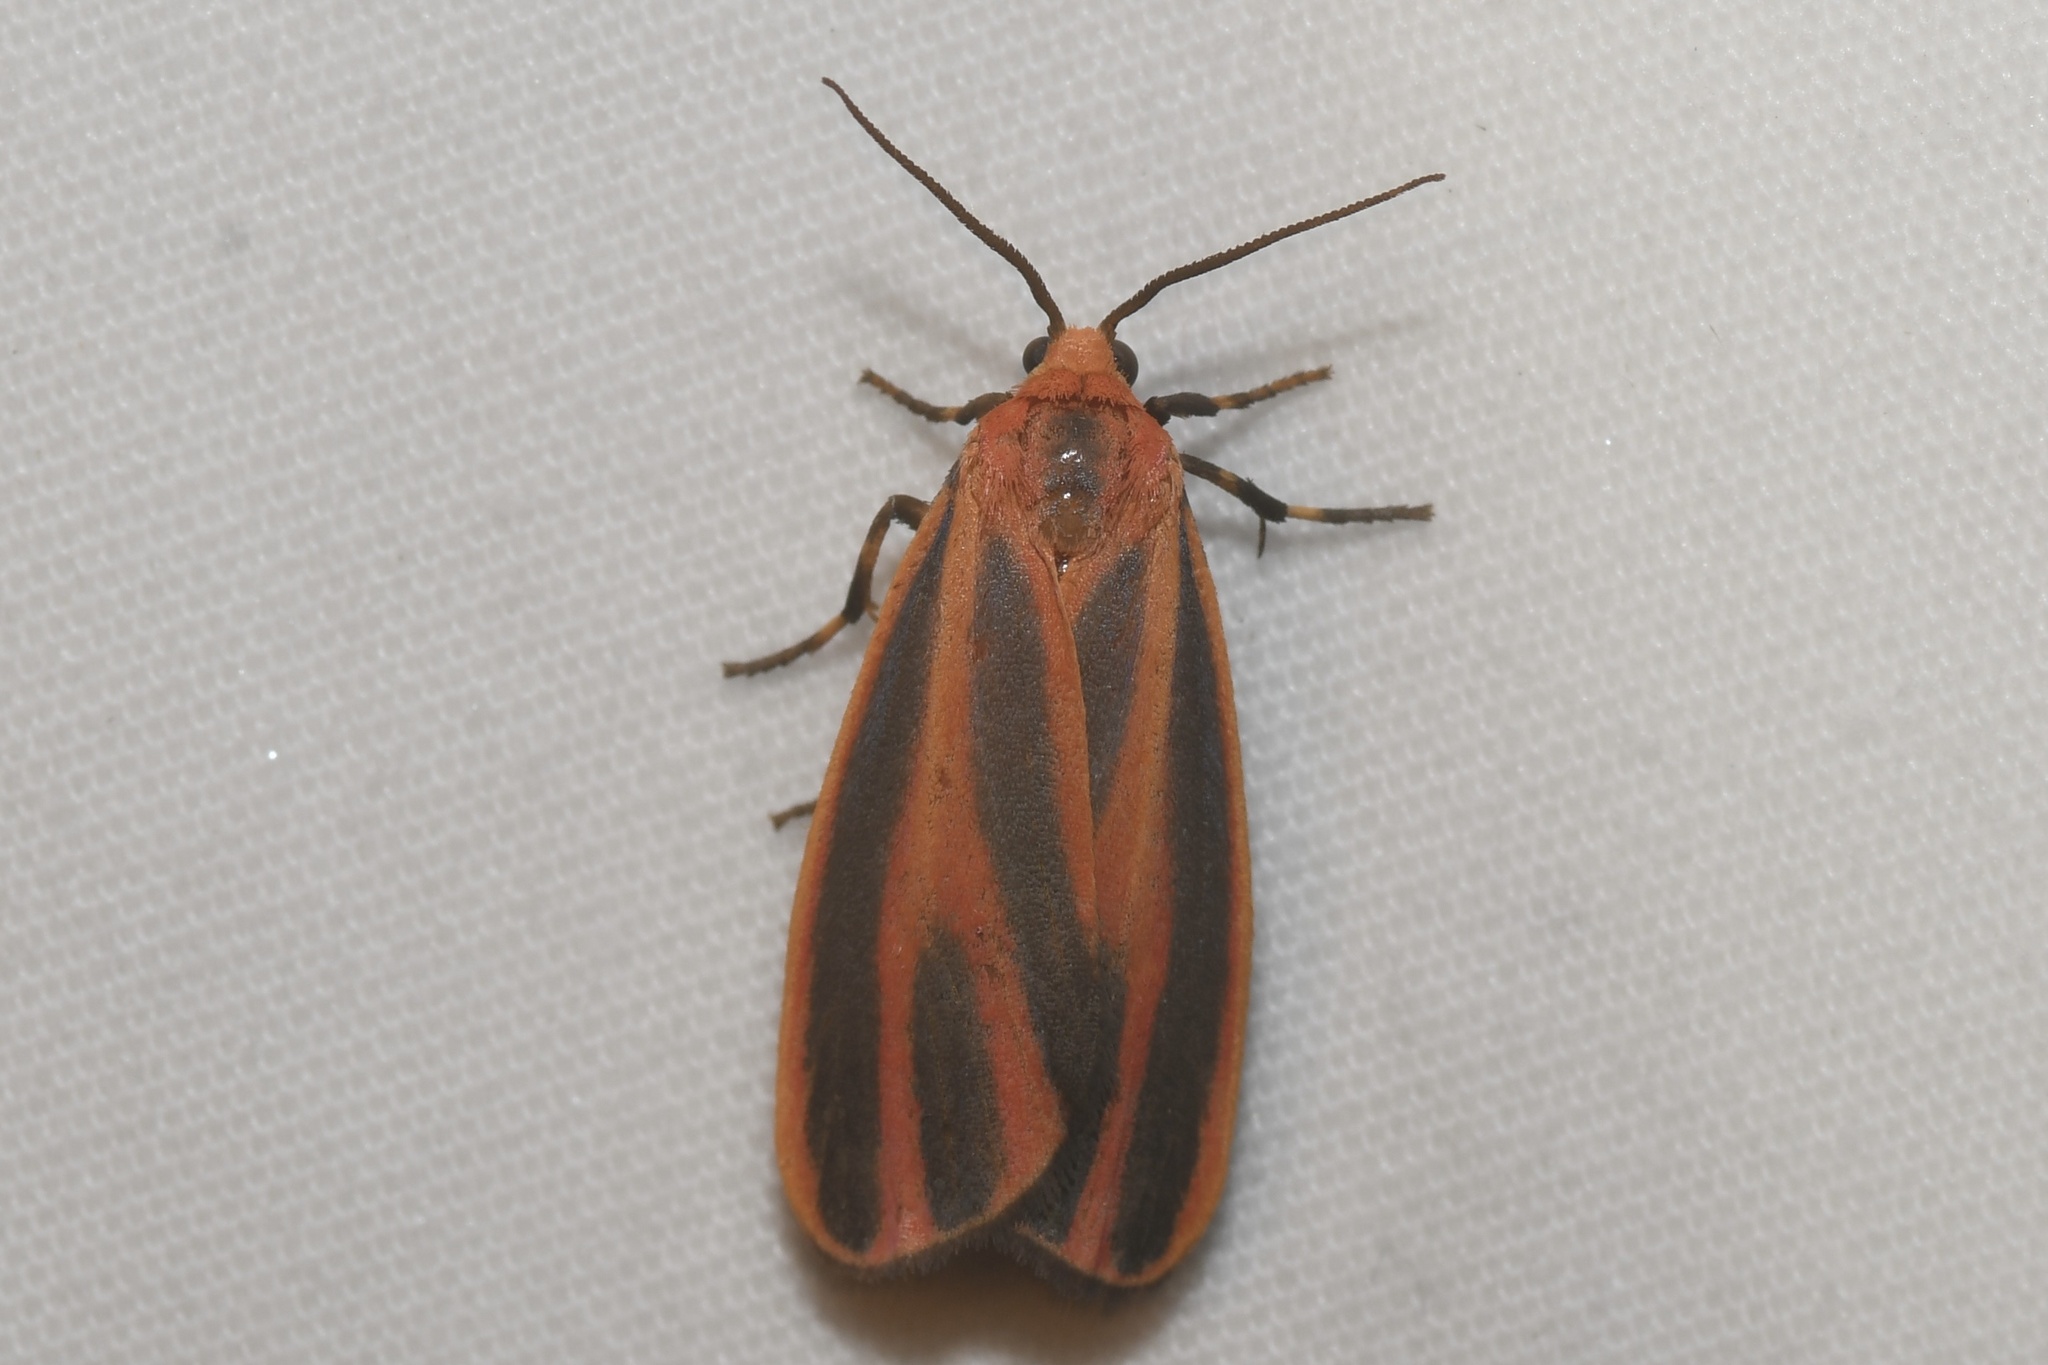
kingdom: Animalia
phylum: Arthropoda
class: Insecta
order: Lepidoptera
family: Erebidae
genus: Hypoprepia
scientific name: Hypoprepia miniata
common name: Scarlet-winged lichen moth
